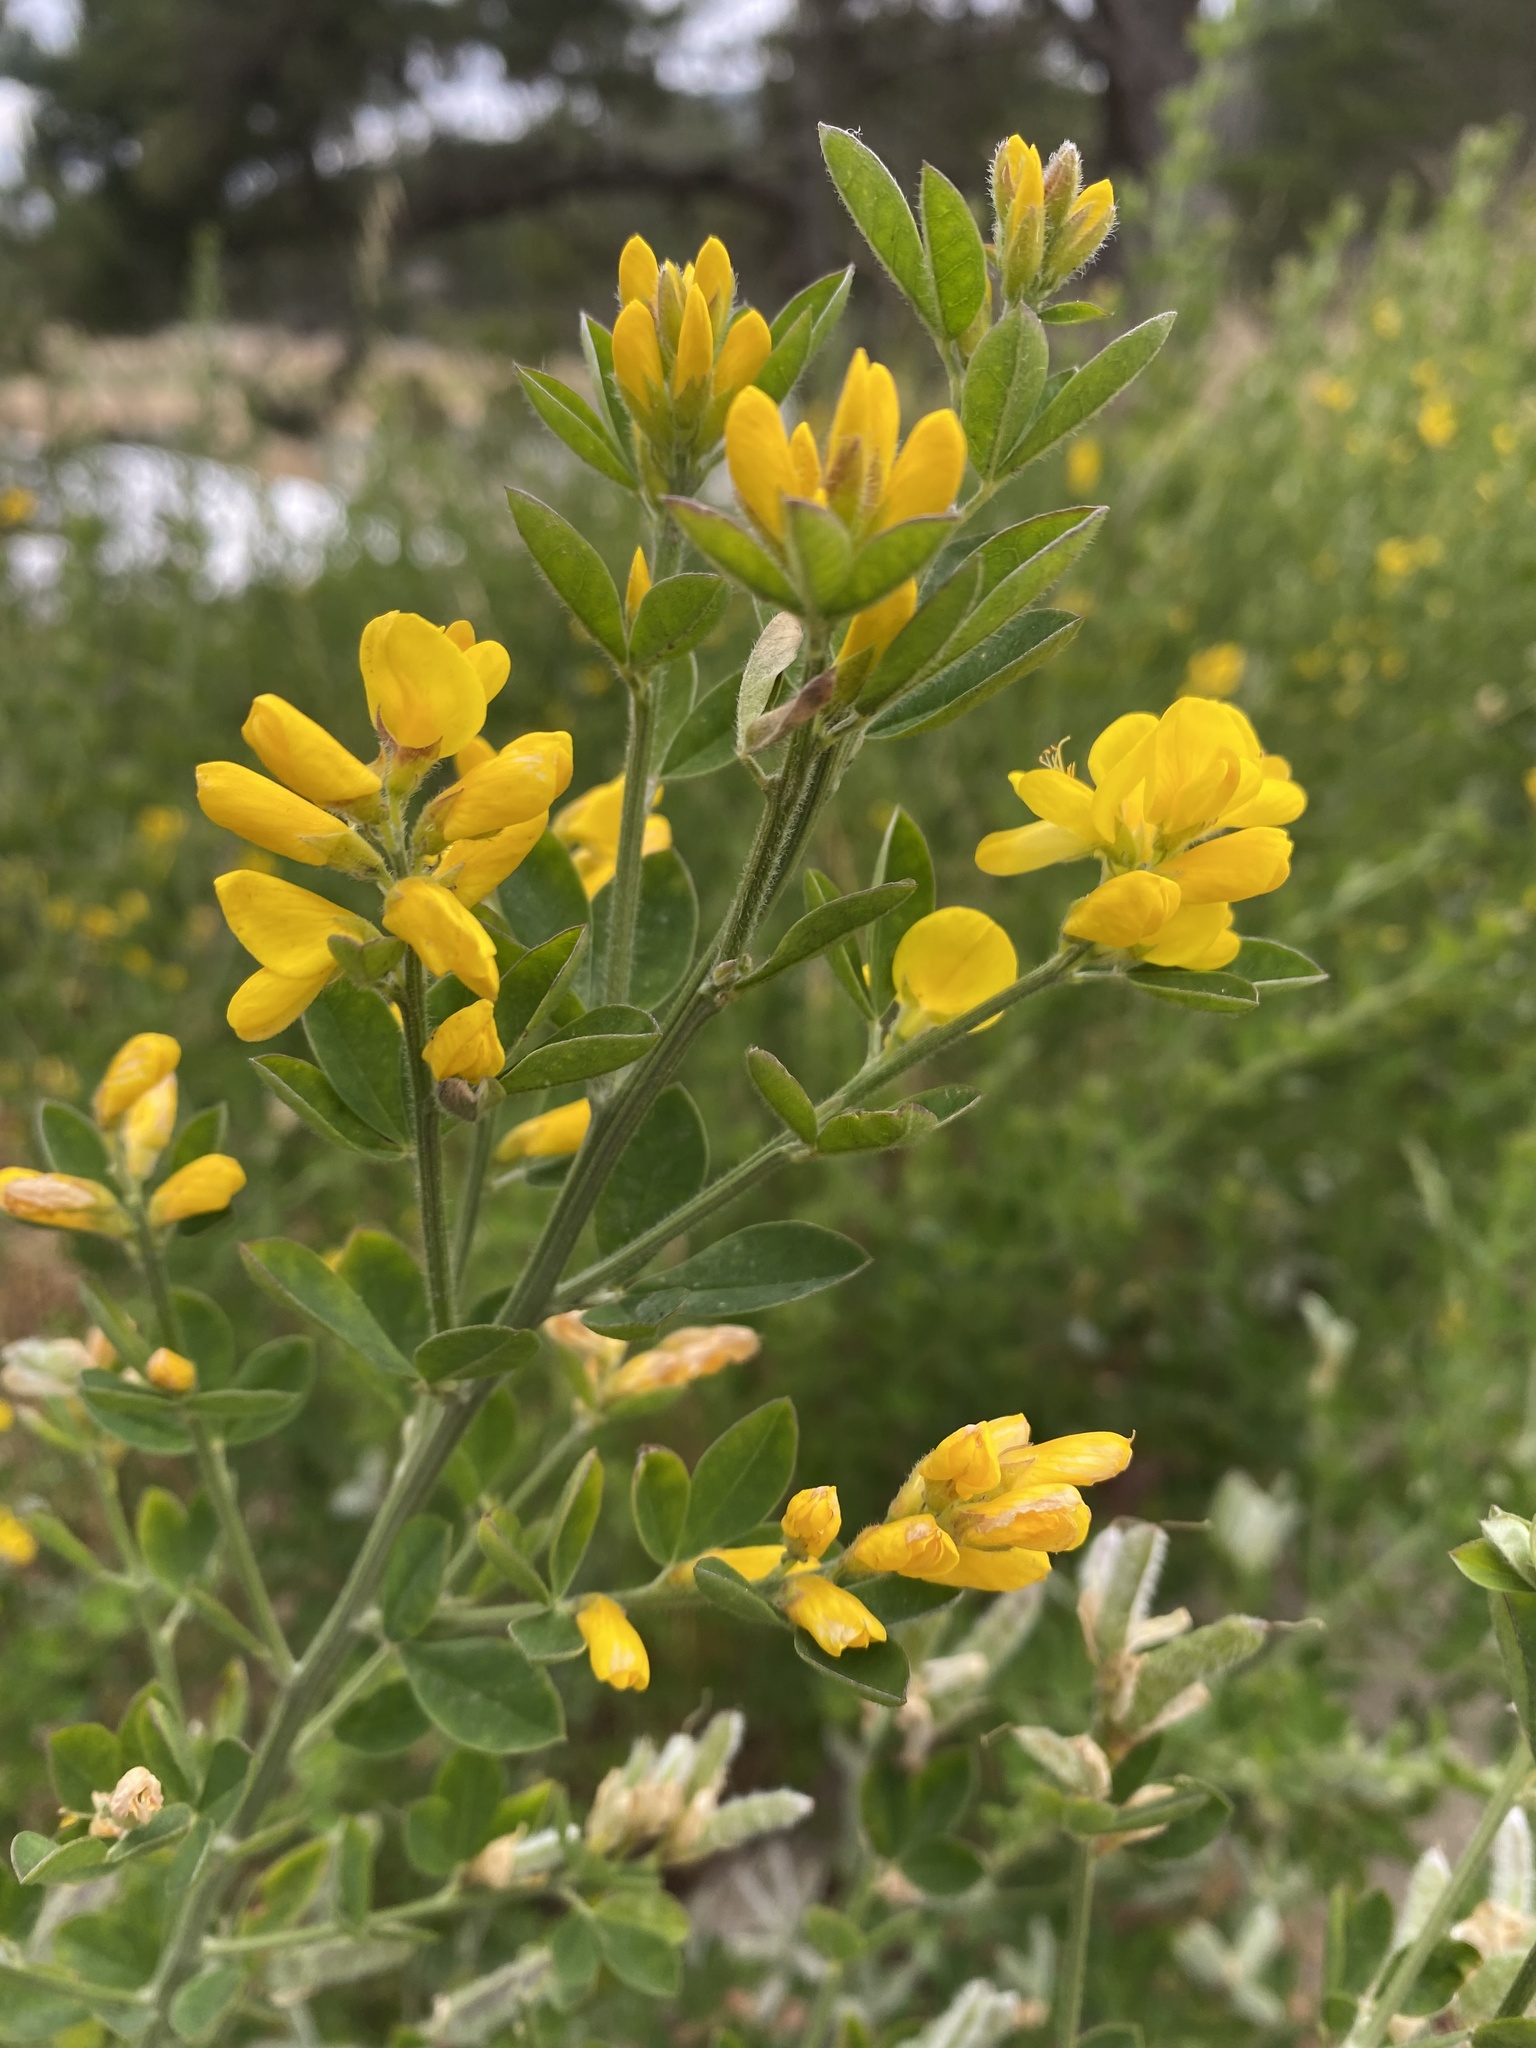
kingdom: Plantae
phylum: Tracheophyta
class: Magnoliopsida
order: Fabales
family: Fabaceae
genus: Genista
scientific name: Genista monspessulana
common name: Montpellier broom
